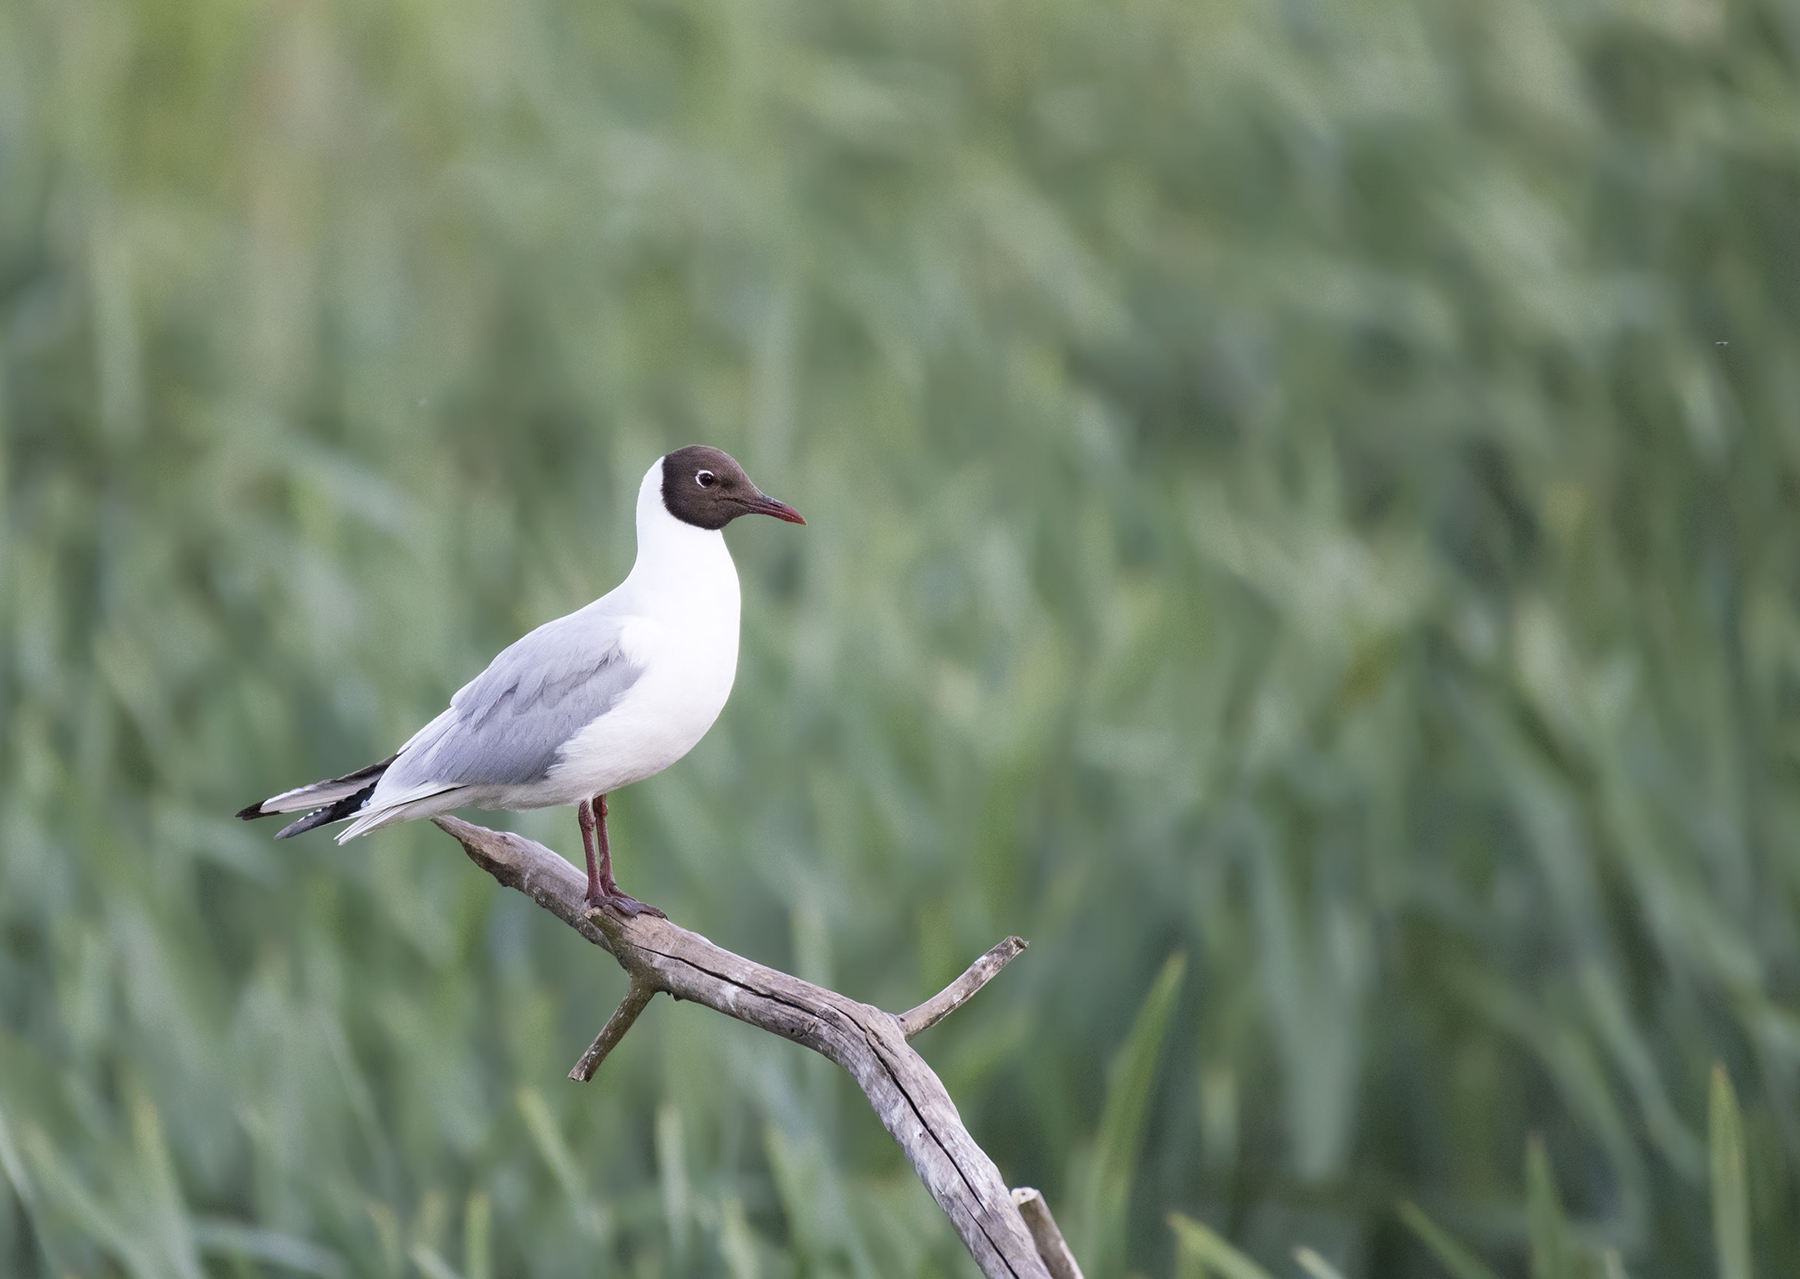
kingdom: Animalia
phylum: Chordata
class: Aves
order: Charadriiformes
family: Laridae
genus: Chroicocephalus
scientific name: Chroicocephalus ridibundus
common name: Black-headed gull
